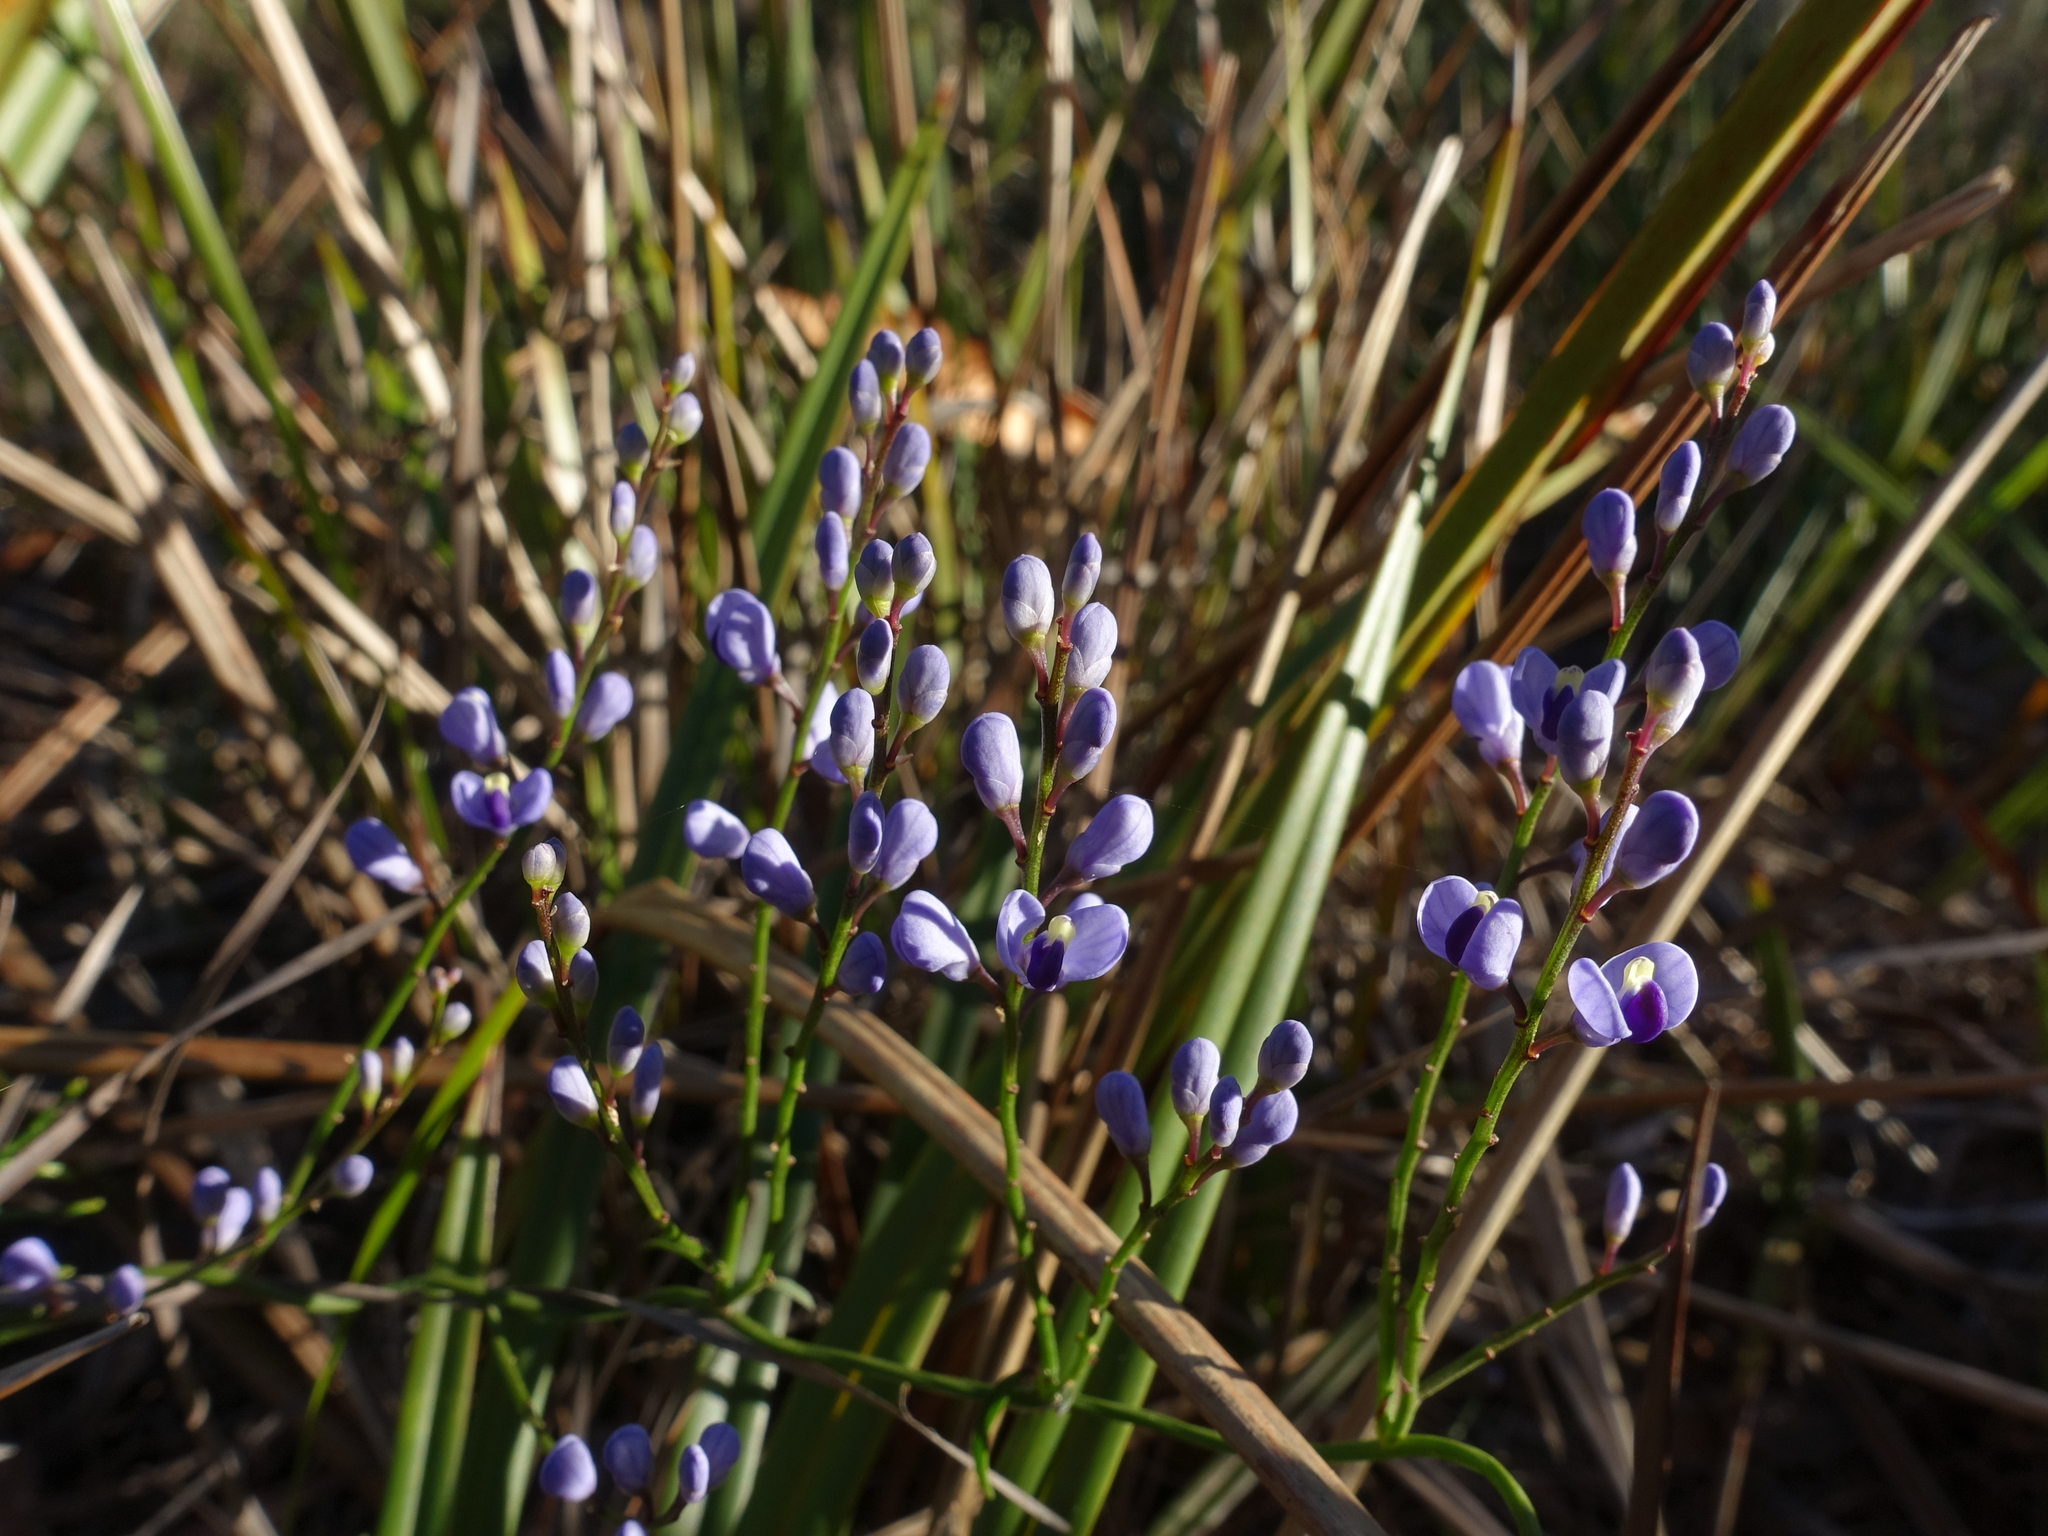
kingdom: Plantae
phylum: Tracheophyta
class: Magnoliopsida
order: Fabales
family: Polygalaceae
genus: Comesperma
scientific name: Comesperma volubile
